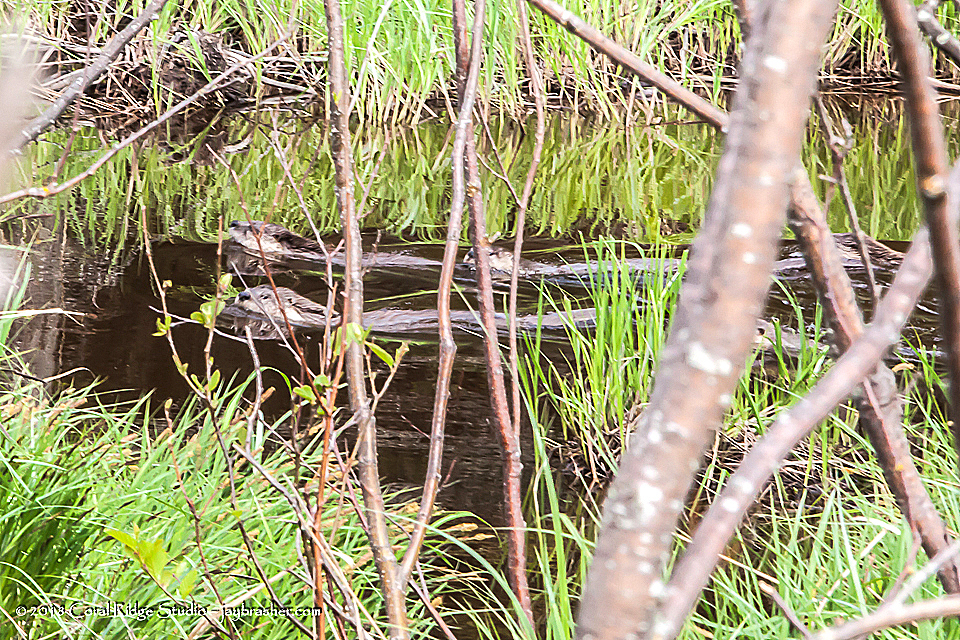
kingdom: Animalia
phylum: Chordata
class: Mammalia
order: Carnivora
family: Mustelidae
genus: Lontra
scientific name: Lontra canadensis
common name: North american river otter
